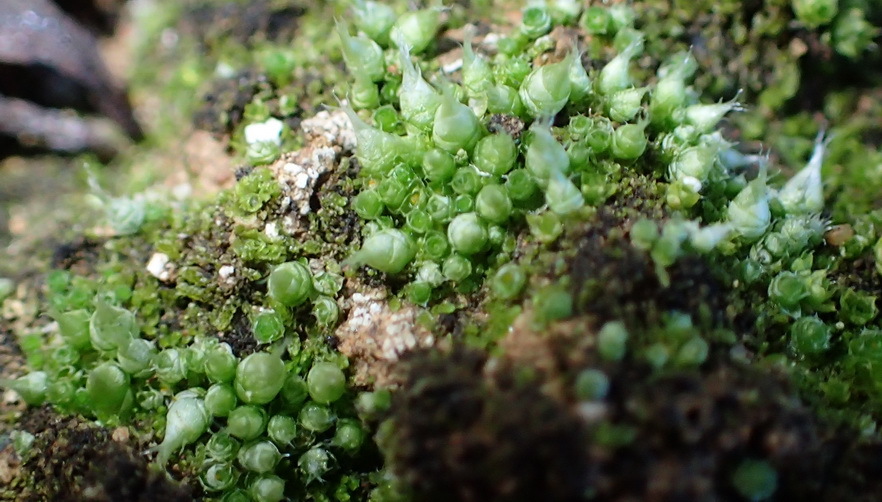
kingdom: Plantae
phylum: Bryophyta
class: Bryopsida
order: Gigaspermales
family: Gigaspermaceae
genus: Gigaspermum
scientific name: Gigaspermum repens
